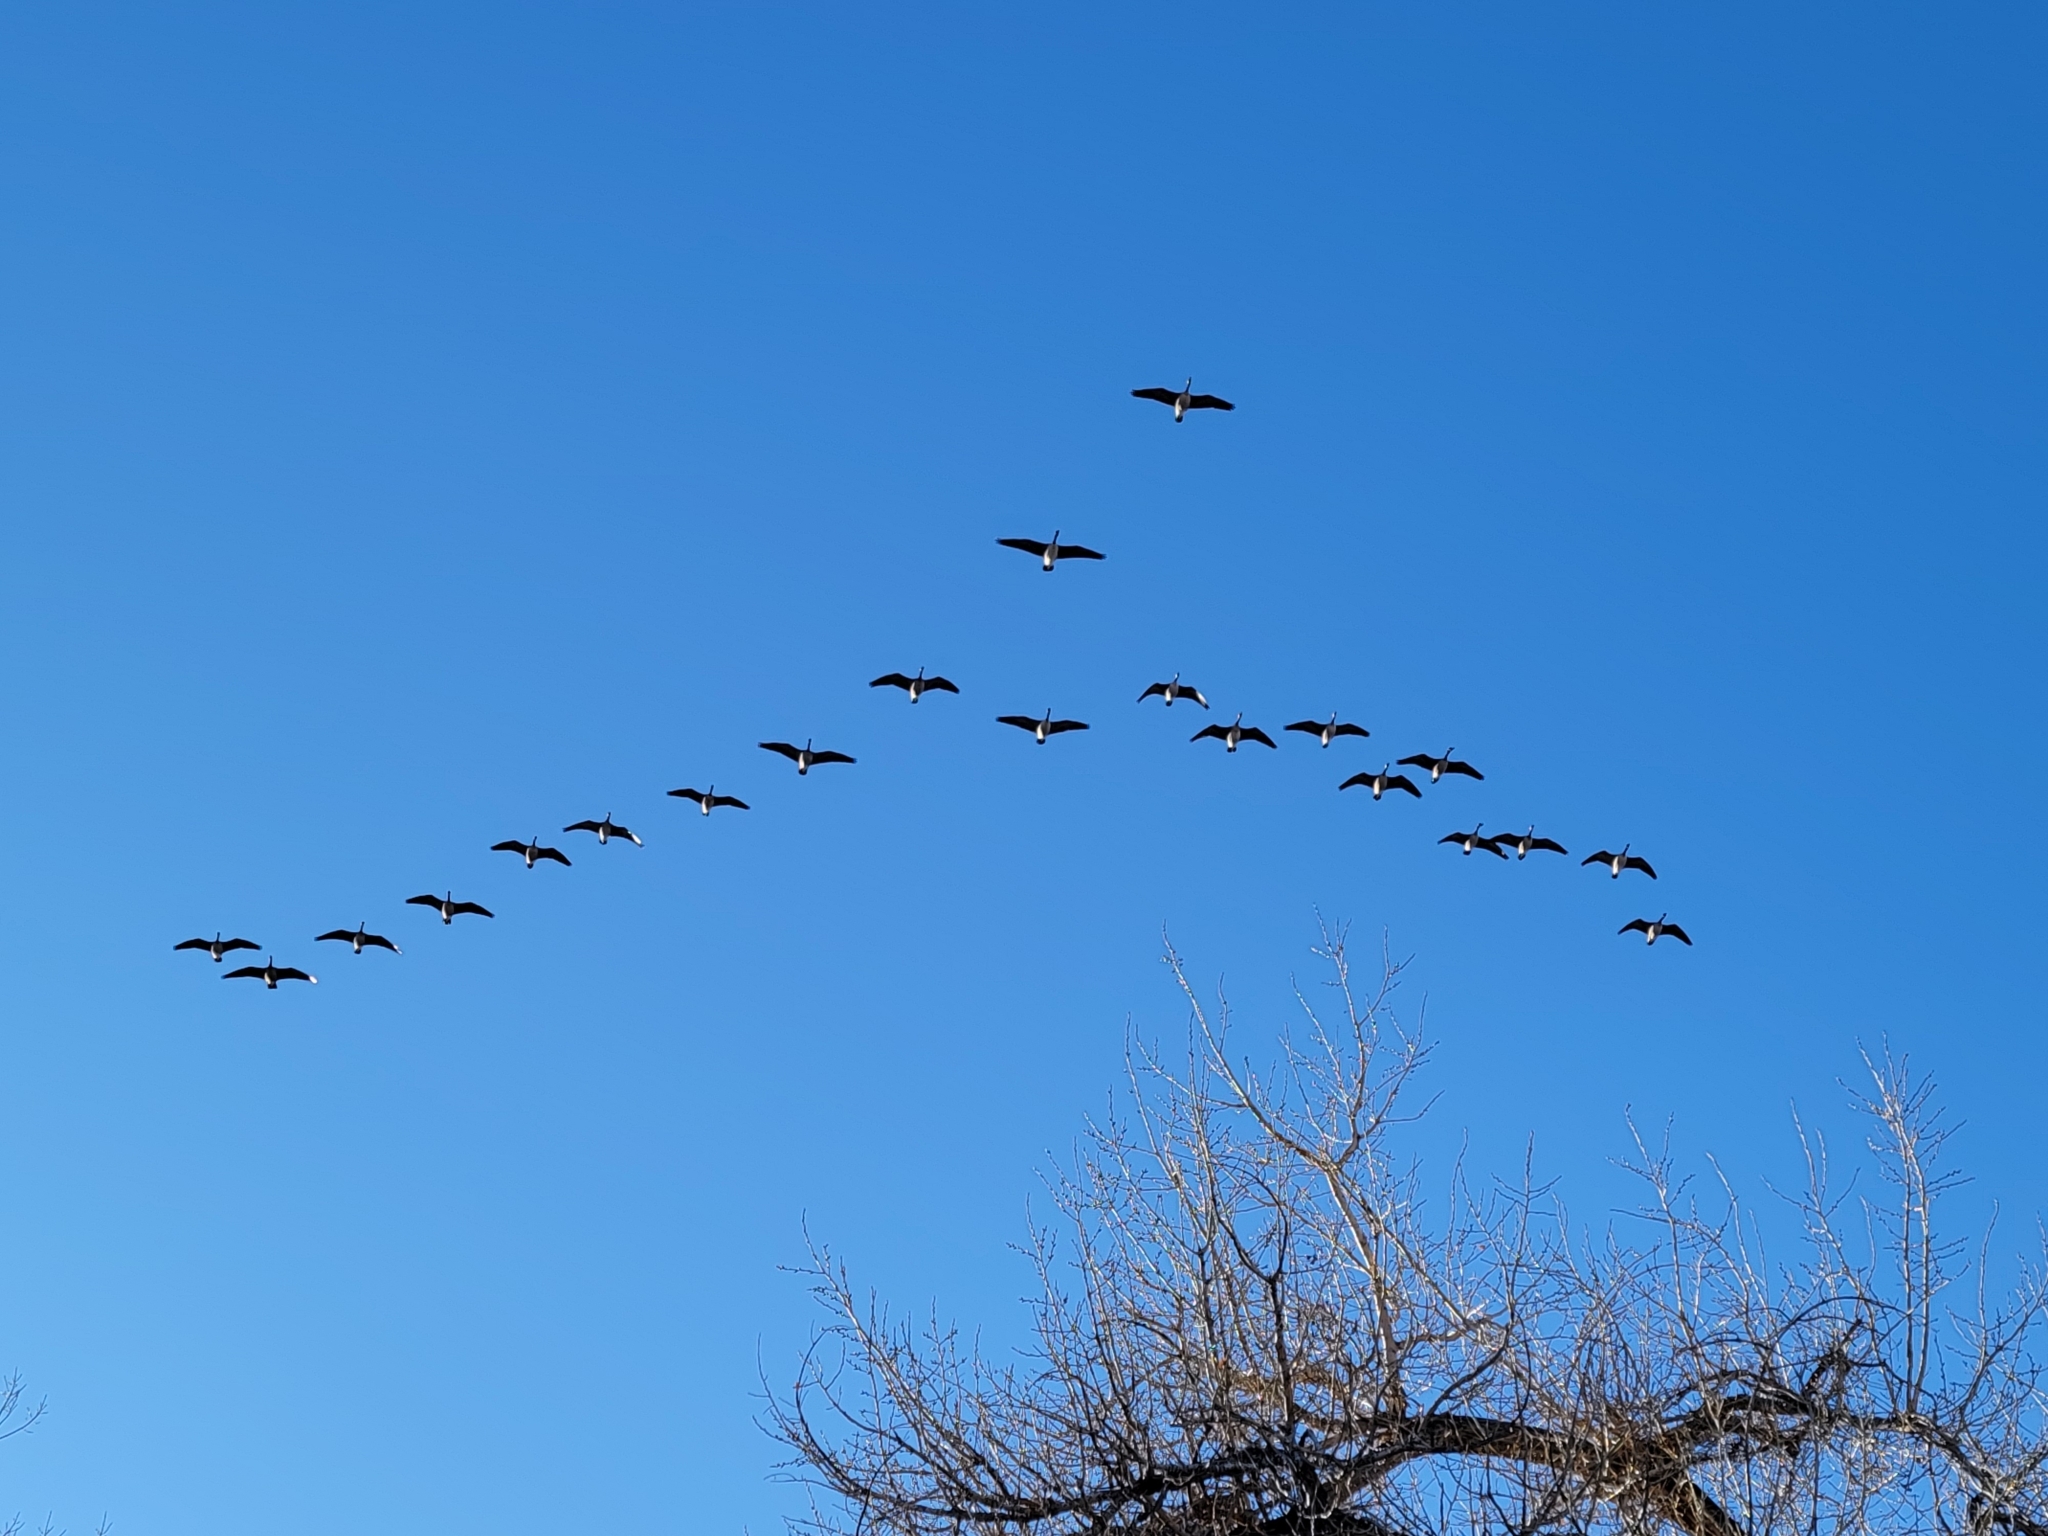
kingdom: Animalia
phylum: Chordata
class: Aves
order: Anseriformes
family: Anatidae
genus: Branta
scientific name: Branta canadensis
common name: Canada goose
